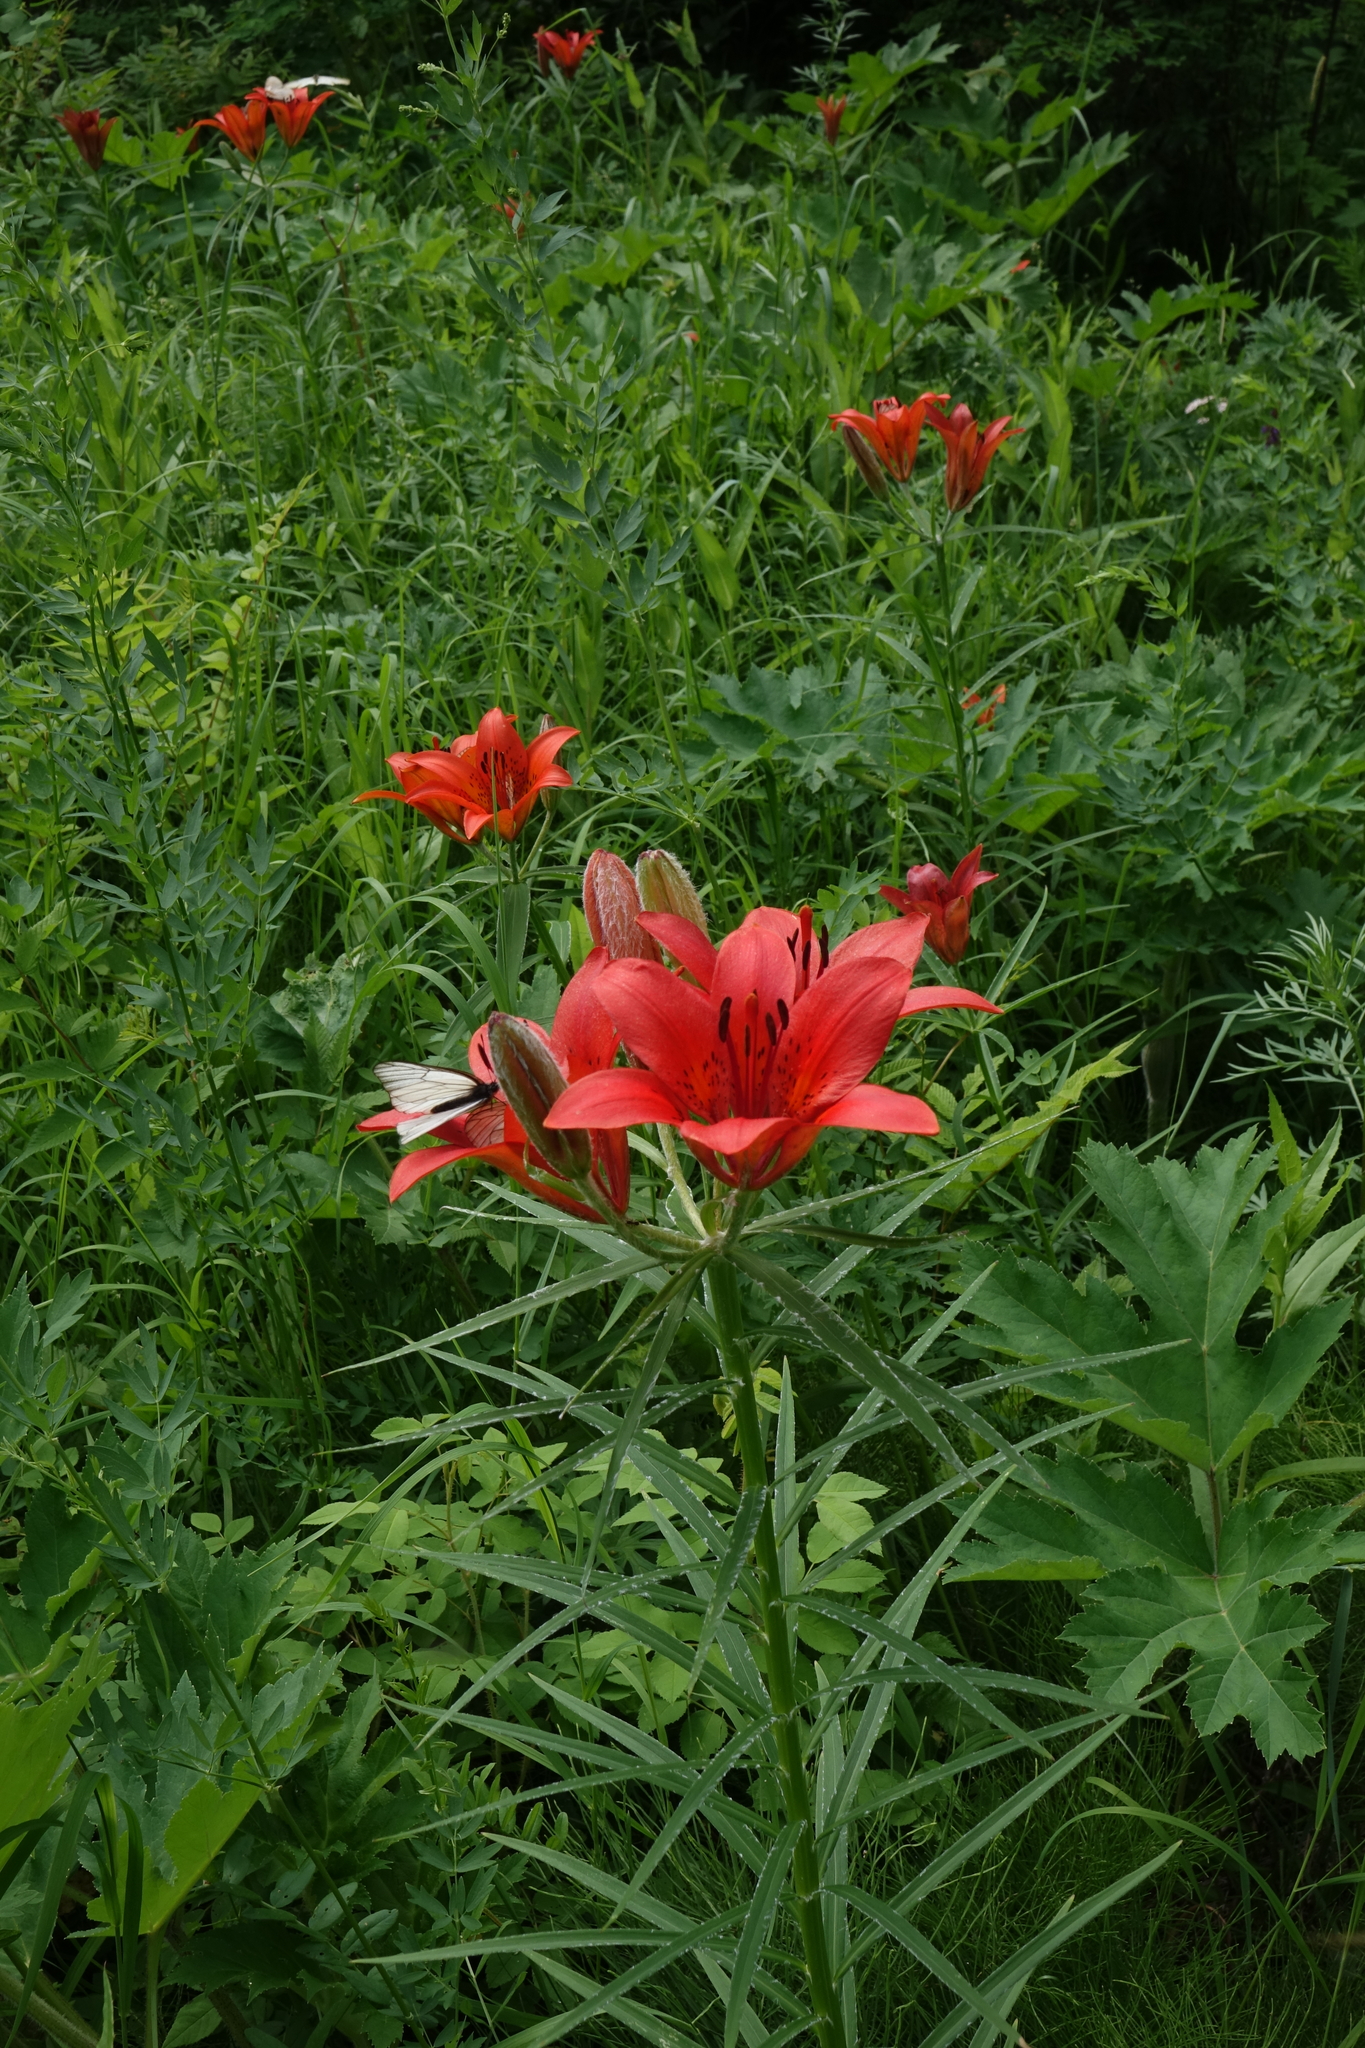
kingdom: Plantae
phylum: Tracheophyta
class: Liliopsida
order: Liliales
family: Liliaceae
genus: Lilium
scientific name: Lilium pensylvanicum
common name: Candlestick lily
